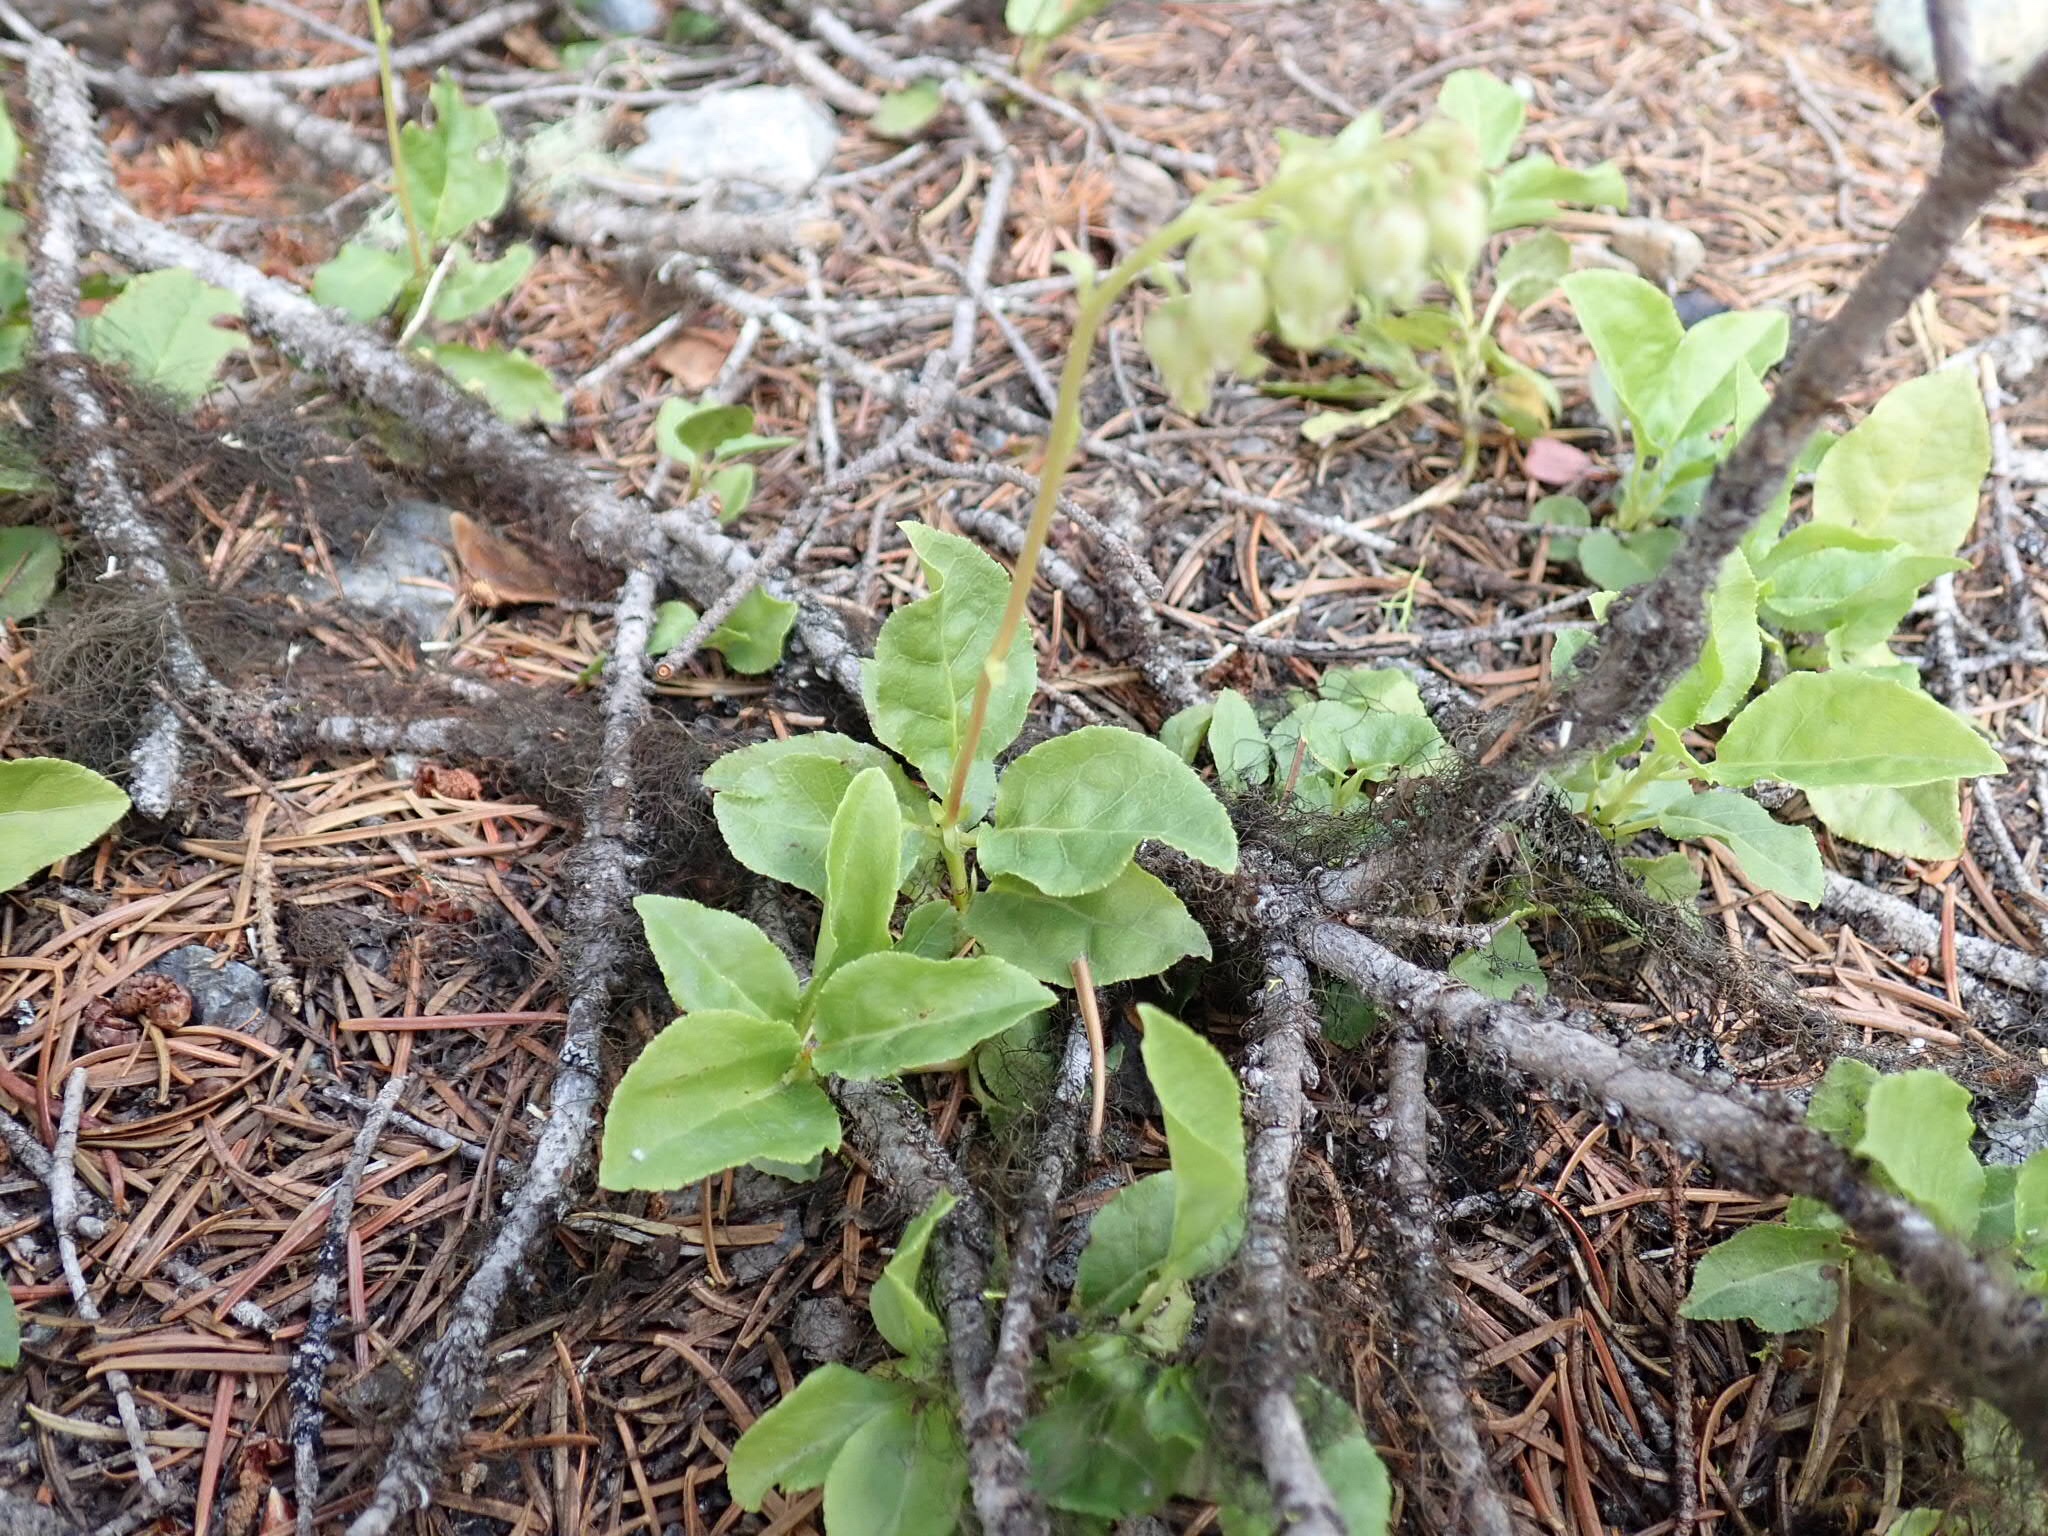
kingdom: Plantae
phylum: Tracheophyta
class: Magnoliopsida
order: Ericales
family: Ericaceae
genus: Orthilia
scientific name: Orthilia secunda
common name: One-sided orthilia
